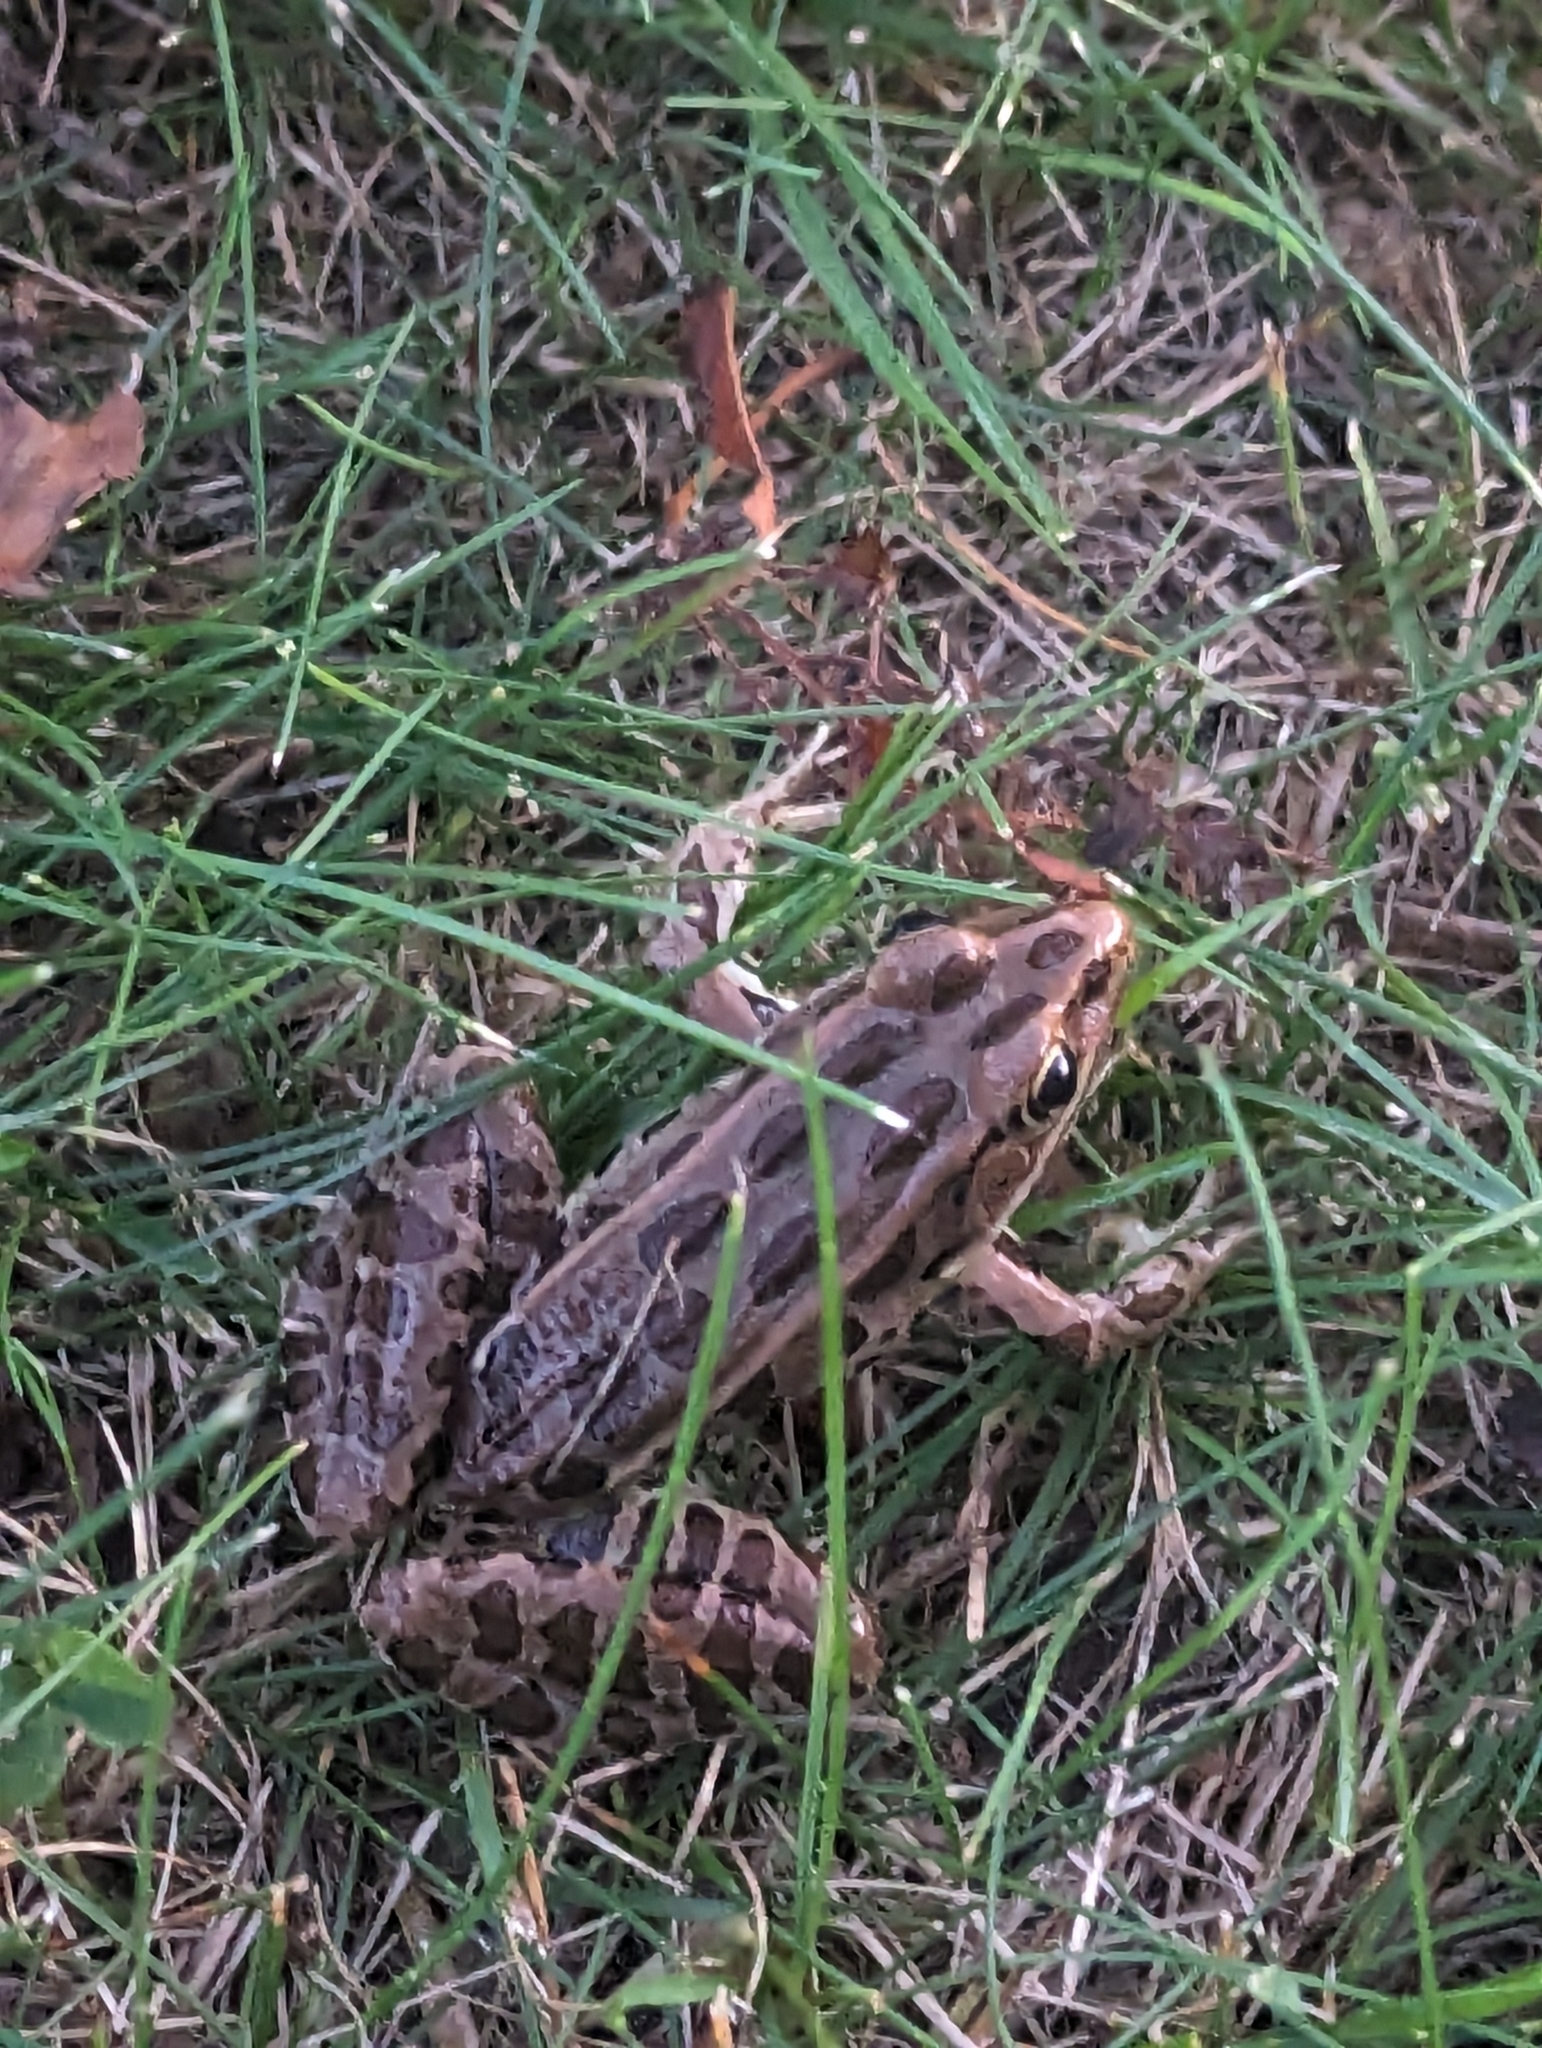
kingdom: Animalia
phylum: Chordata
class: Amphibia
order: Anura
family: Ranidae
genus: Lithobates
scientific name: Lithobates pipiens
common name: Northern leopard frog
